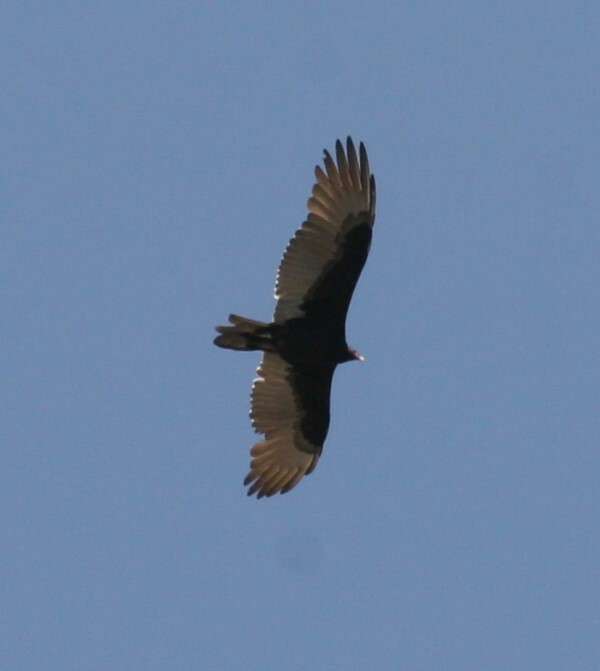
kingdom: Animalia
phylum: Chordata
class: Aves
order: Accipitriformes
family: Cathartidae
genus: Cathartes
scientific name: Cathartes aura
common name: Turkey vulture
